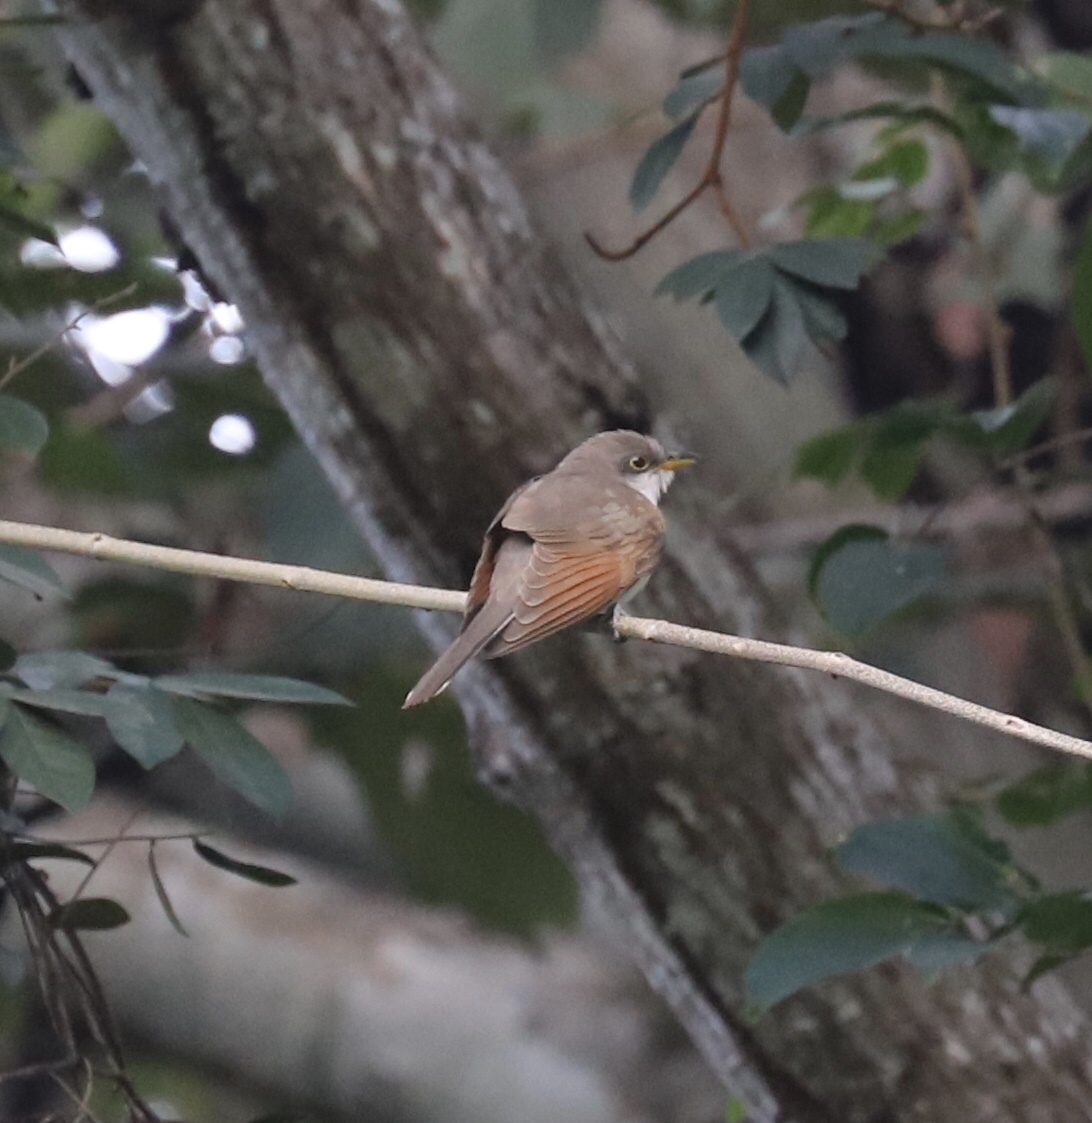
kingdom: Animalia
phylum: Chordata
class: Aves
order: Cuculiformes
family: Cuculidae
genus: Coccyzus
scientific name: Coccyzus americanus
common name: Yellow-billed cuckoo
